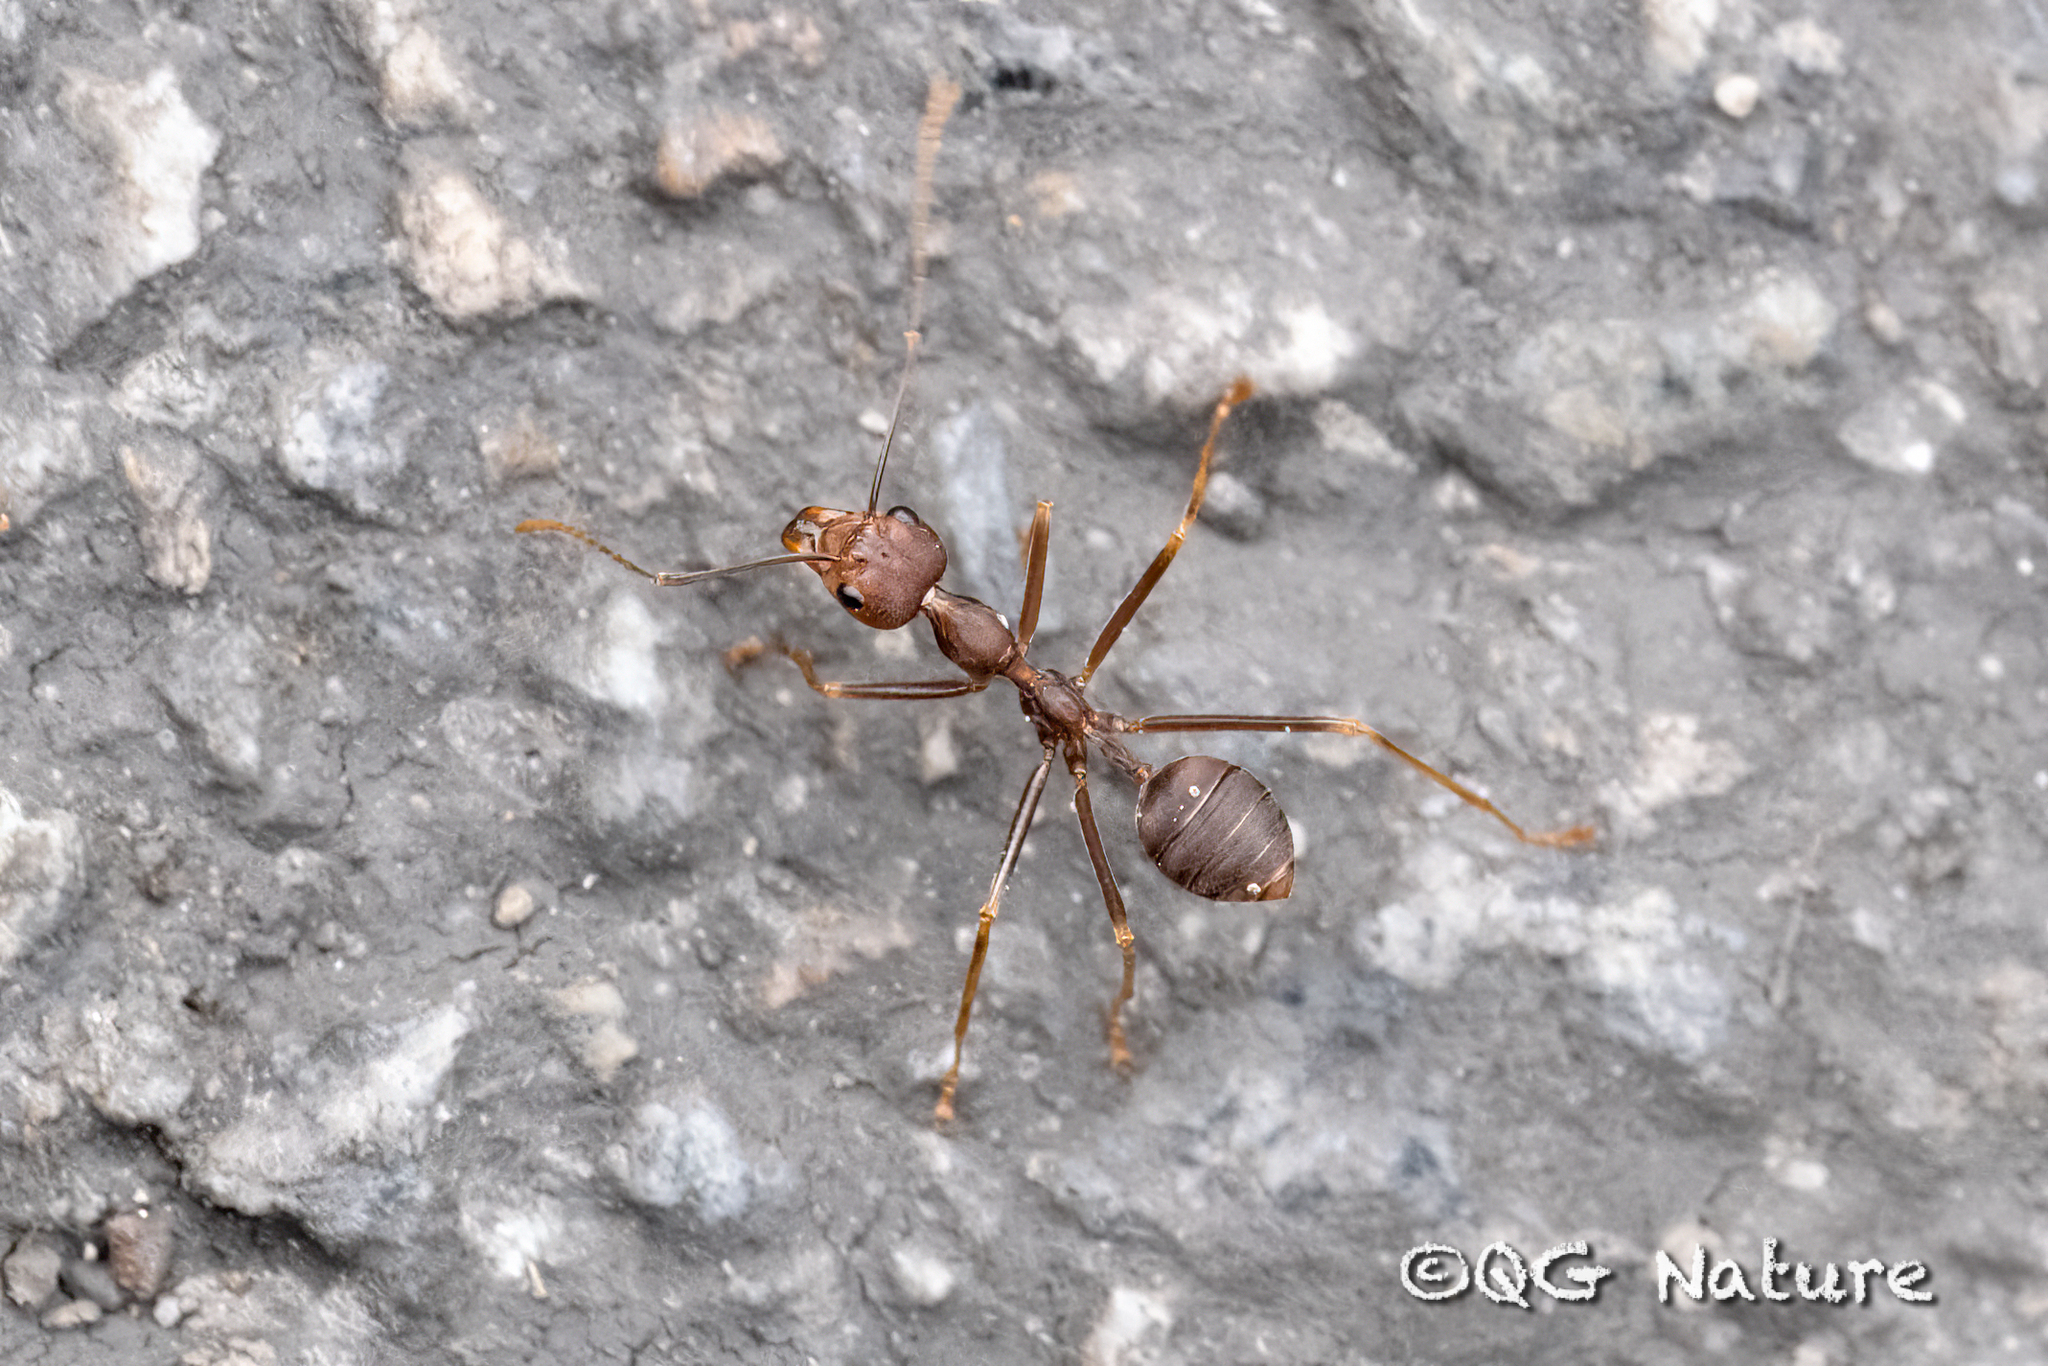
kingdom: Animalia
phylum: Arthropoda
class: Insecta
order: Hymenoptera
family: Formicidae
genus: Oecophylla
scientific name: Oecophylla smaragdina
